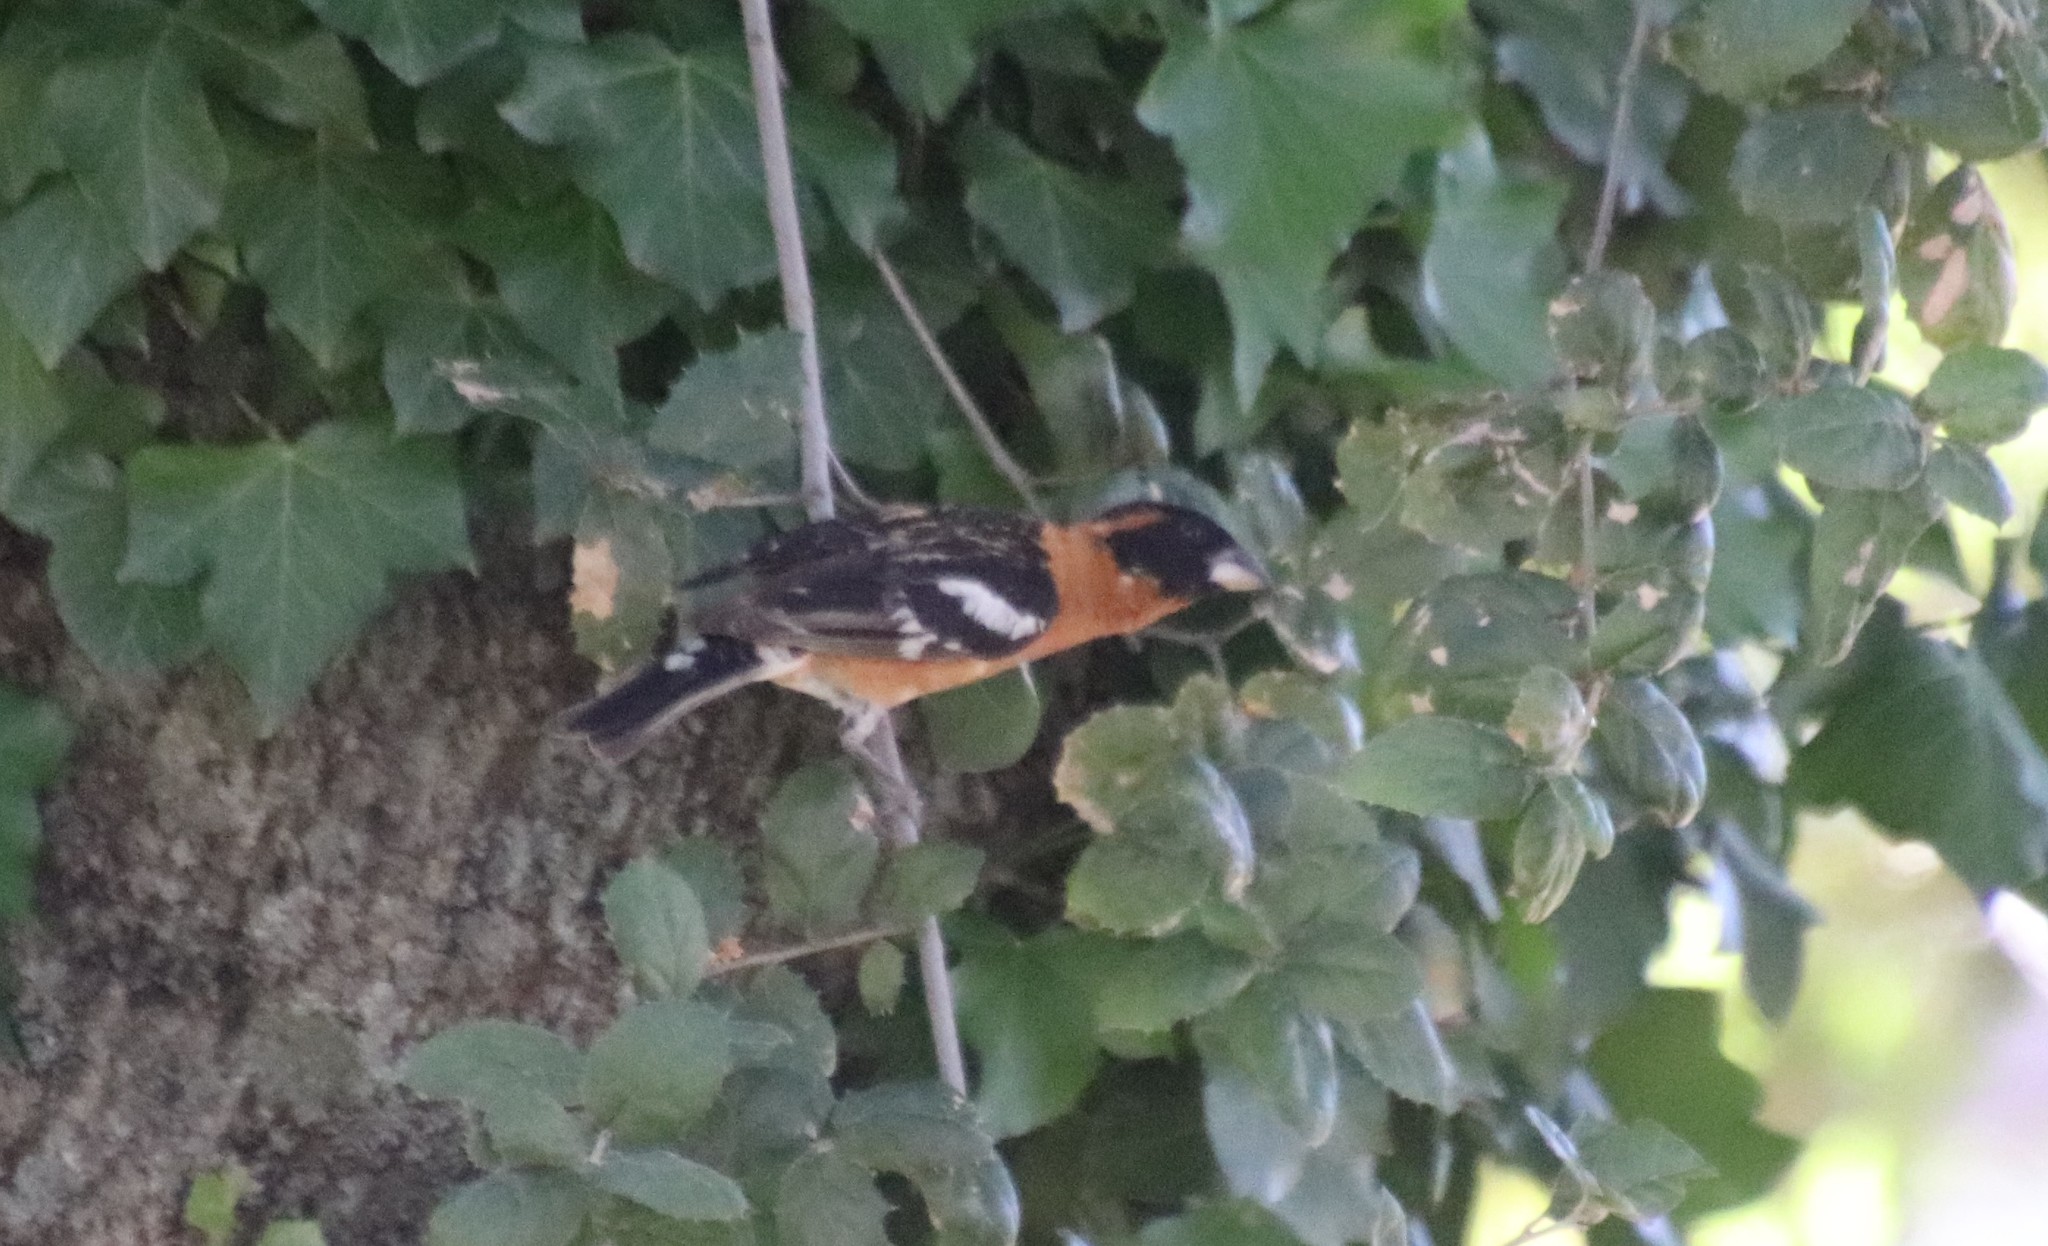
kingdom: Animalia
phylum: Chordata
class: Aves
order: Passeriformes
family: Cardinalidae
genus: Pheucticus
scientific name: Pheucticus melanocephalus
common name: Black-headed grosbeak
